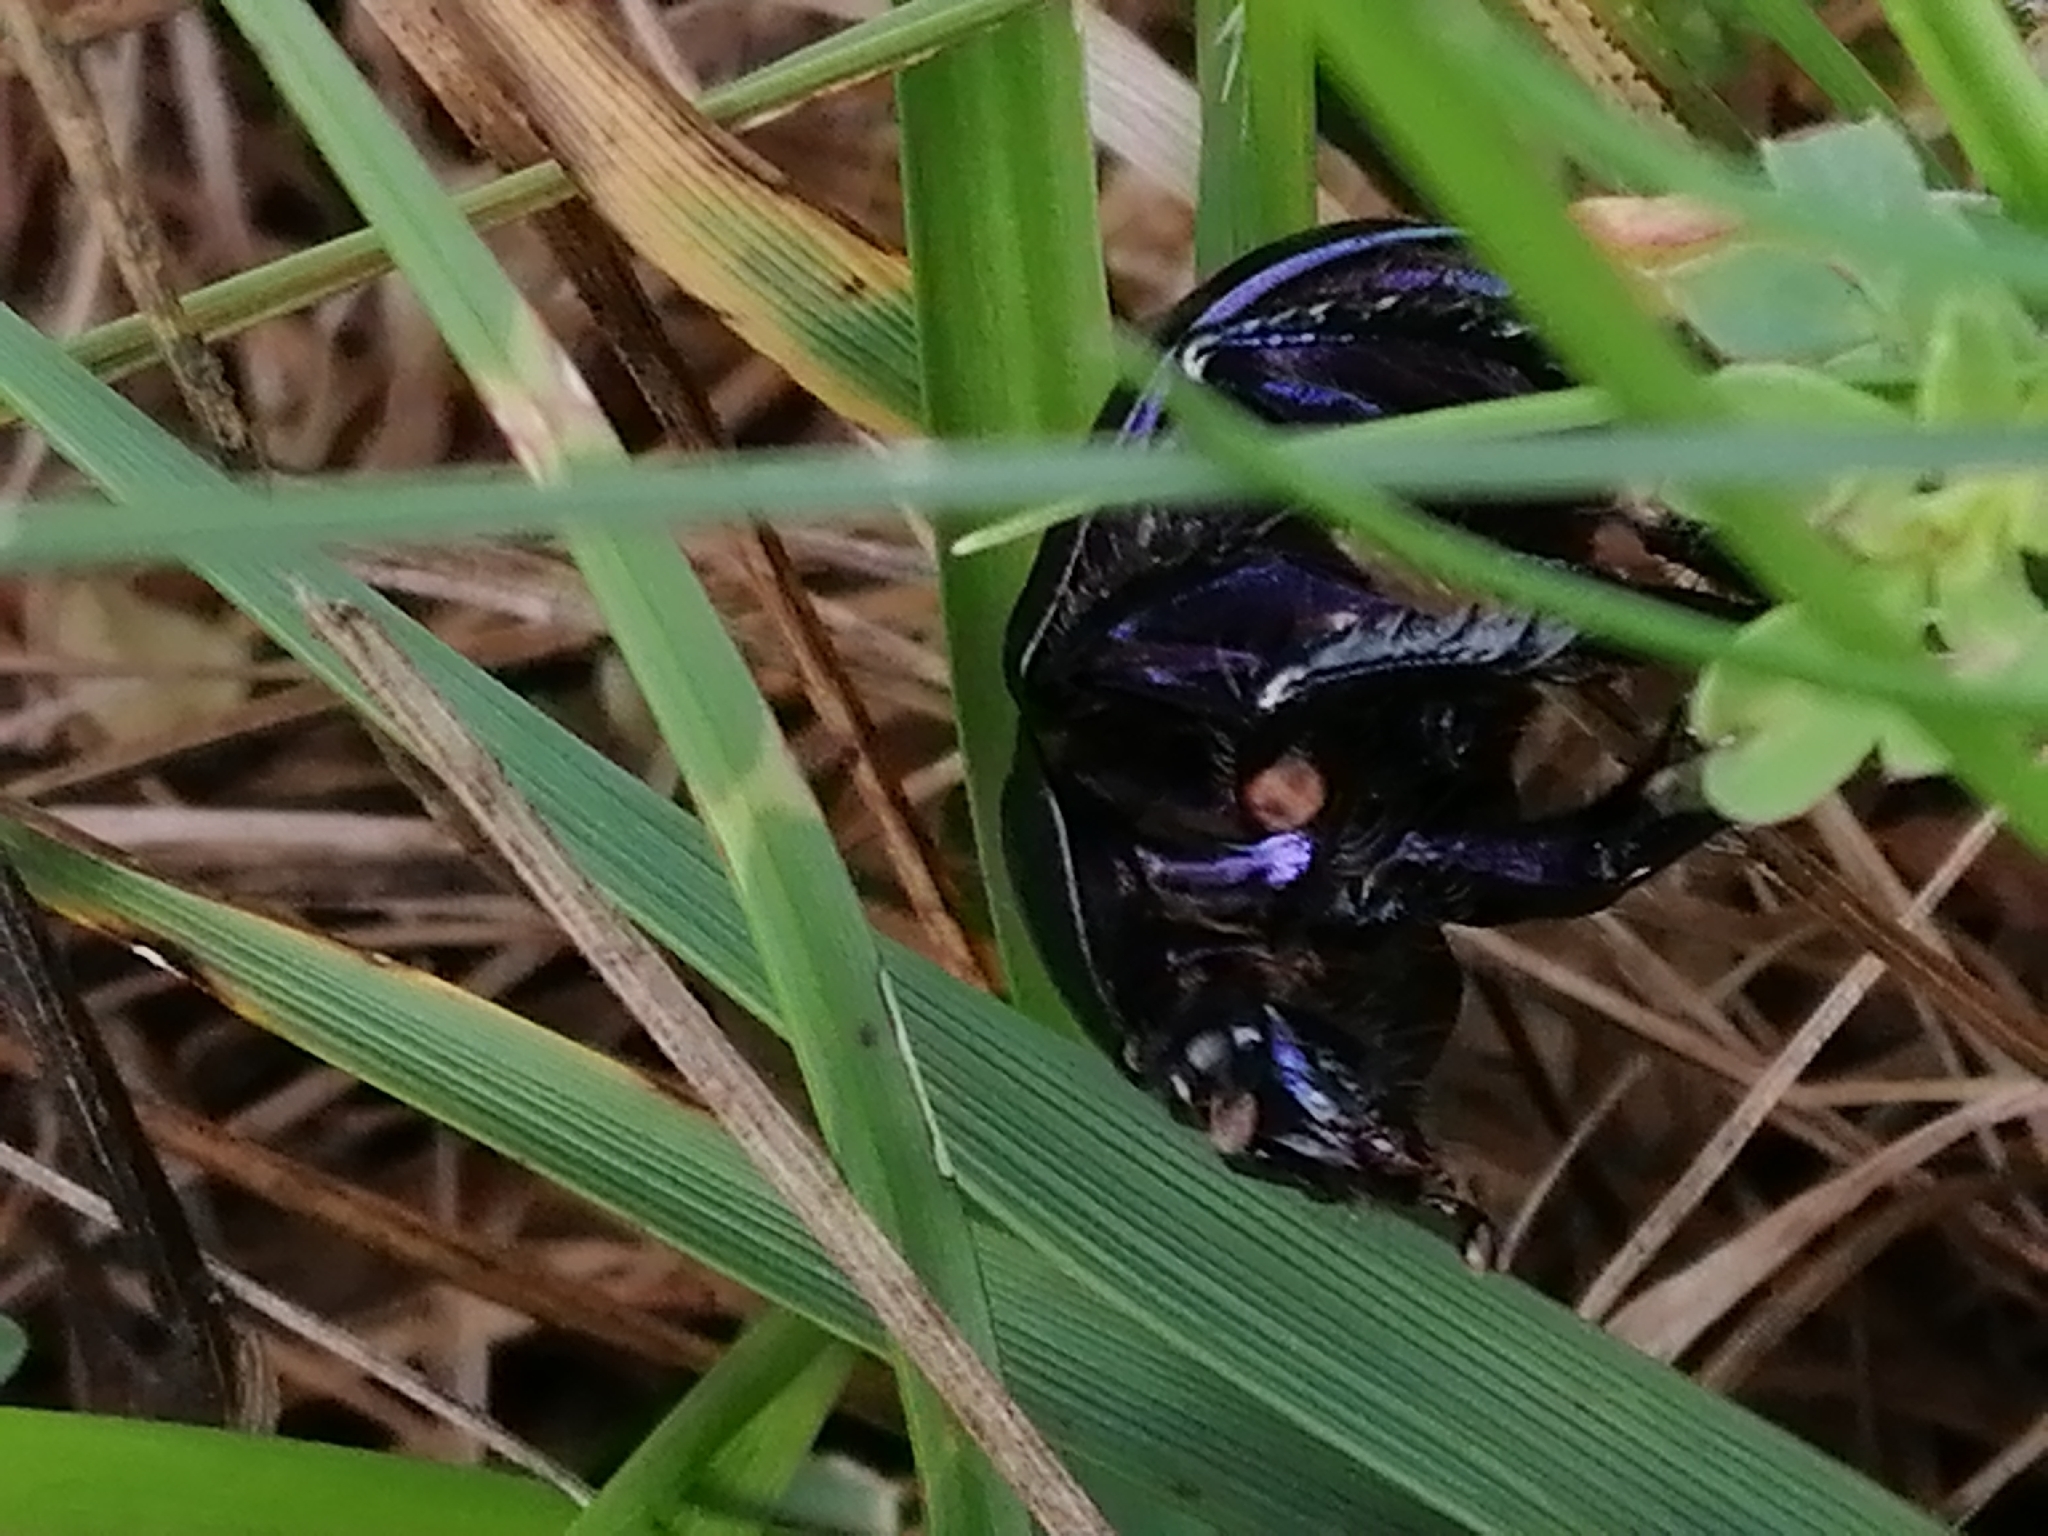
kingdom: Animalia
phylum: Arthropoda
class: Insecta
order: Coleoptera
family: Geotrupidae
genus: Anoplotrupes
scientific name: Anoplotrupes stercorosus
